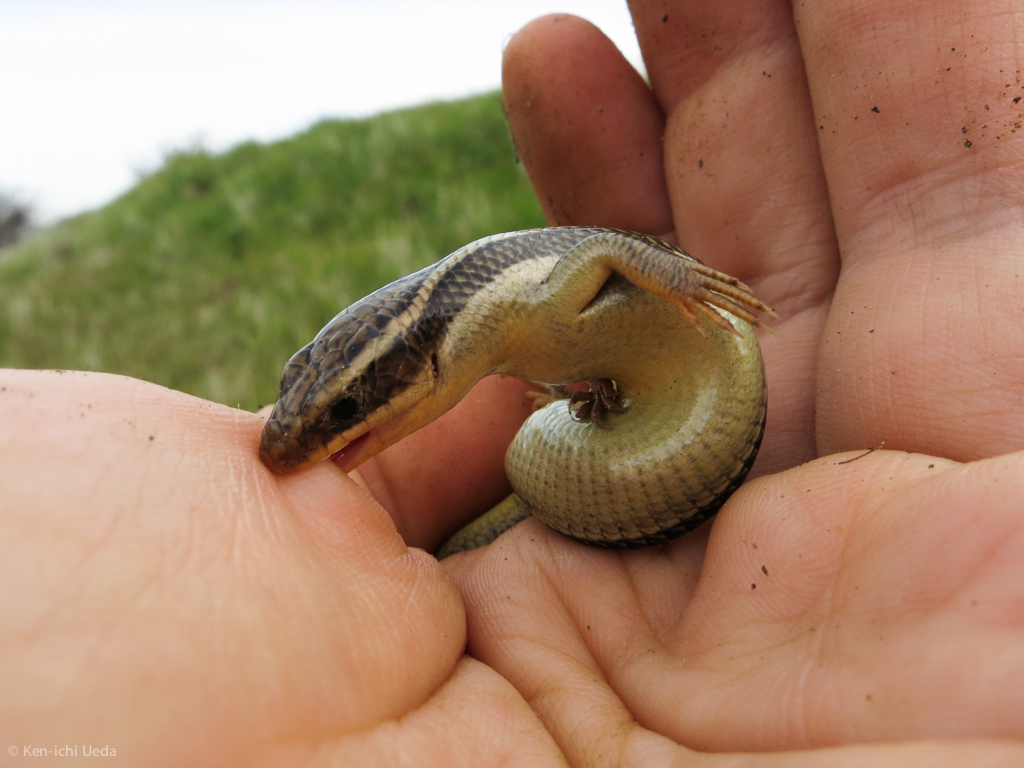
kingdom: Animalia
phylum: Chordata
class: Squamata
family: Scincidae
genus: Plestiodon
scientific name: Plestiodon gilberti
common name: Gilbert's skink
